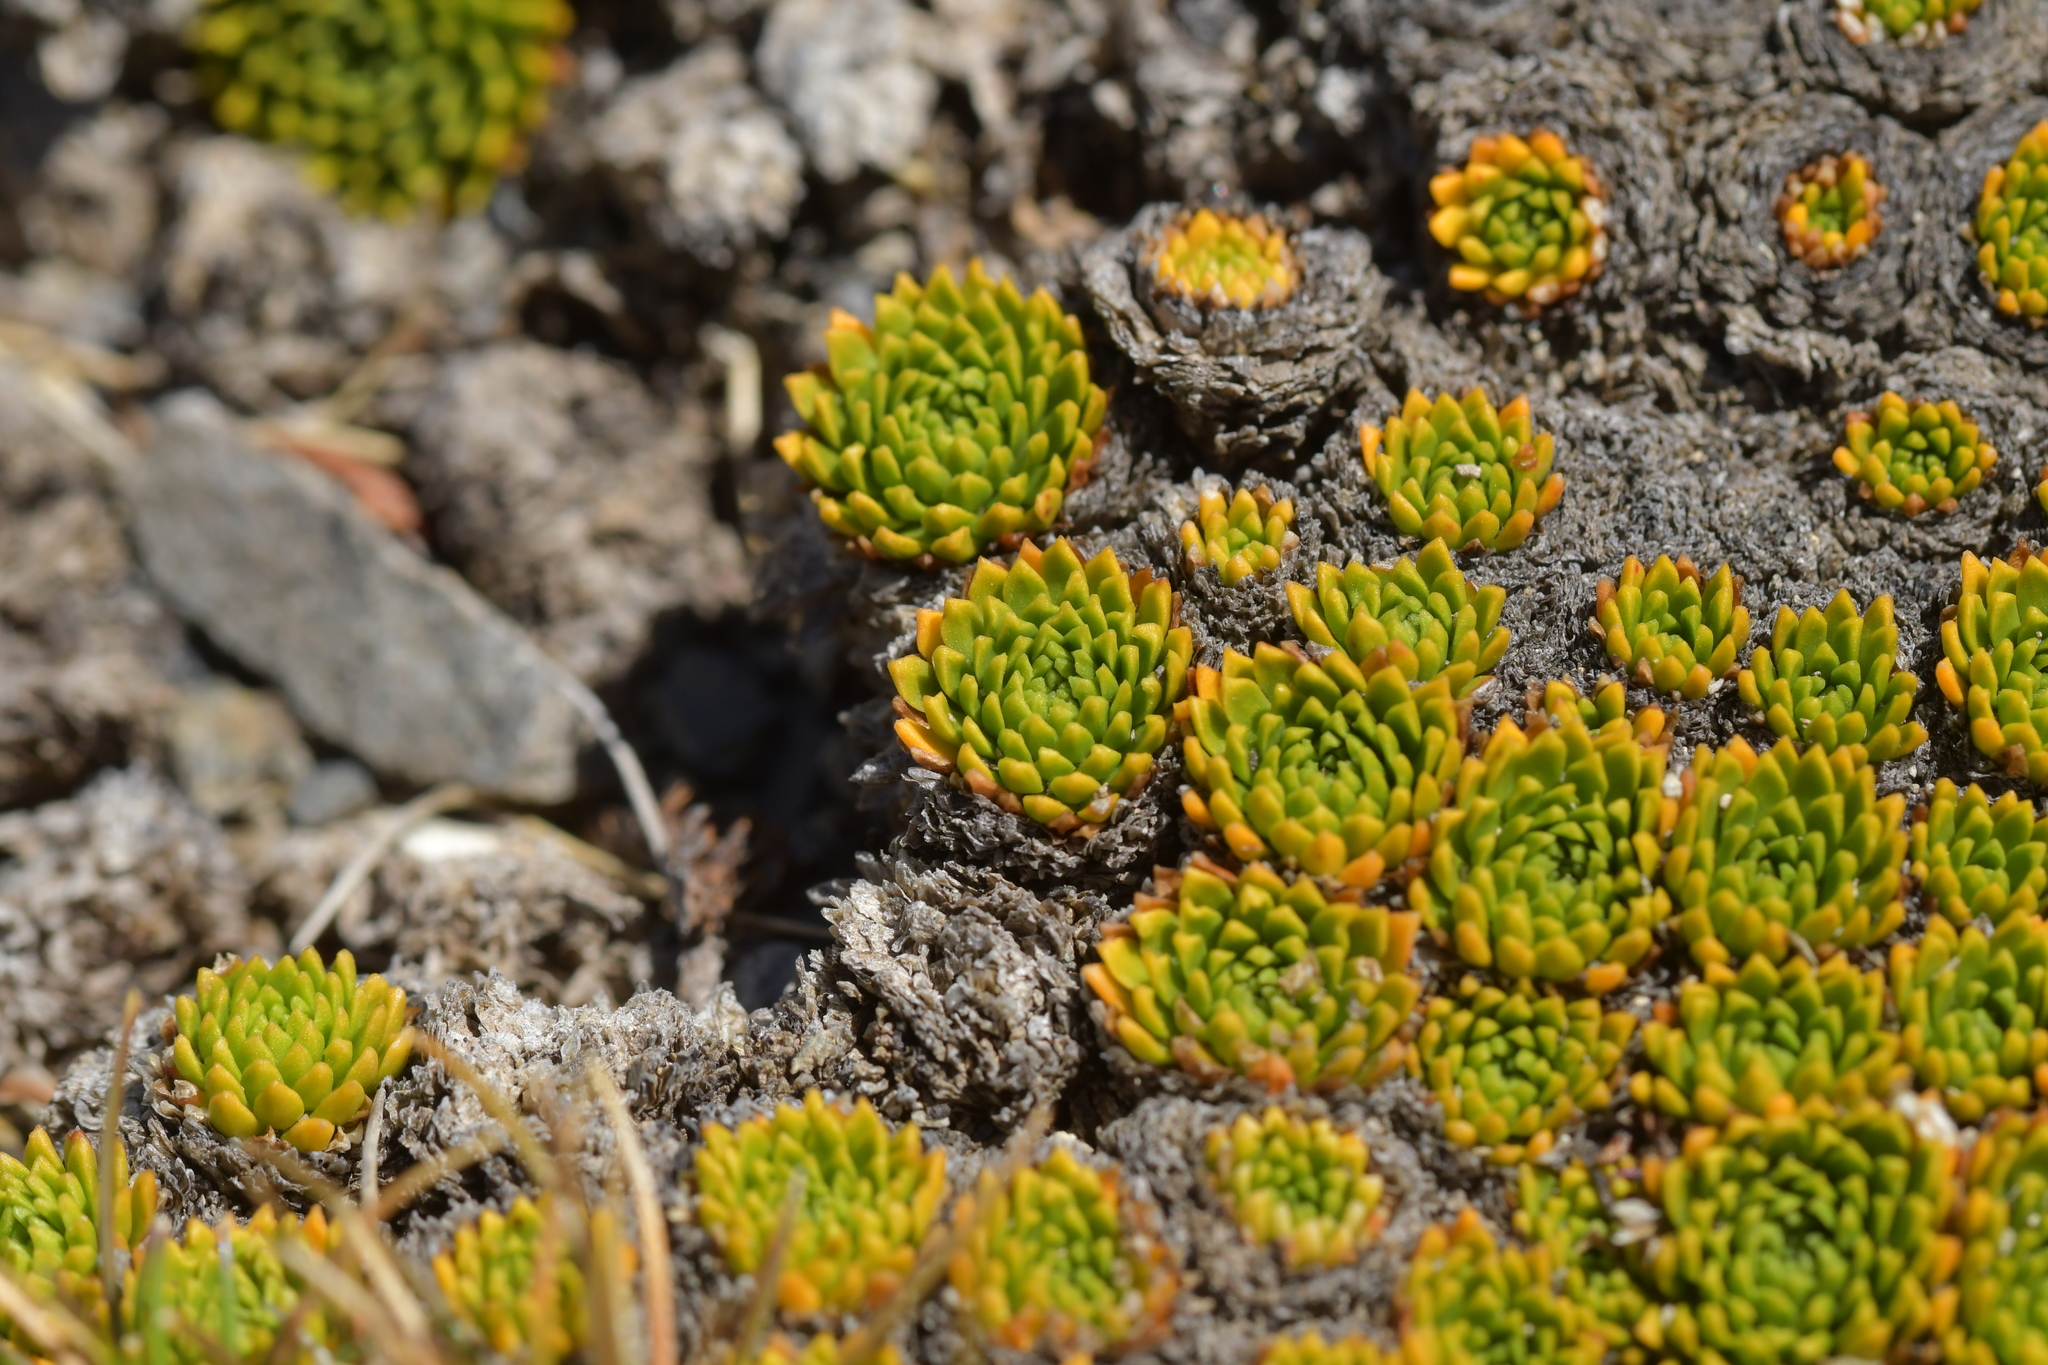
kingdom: Plantae
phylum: Tracheophyta
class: Magnoliopsida
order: Caryophyllales
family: Montiaceae
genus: Hectorella
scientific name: Hectorella caespitosa
